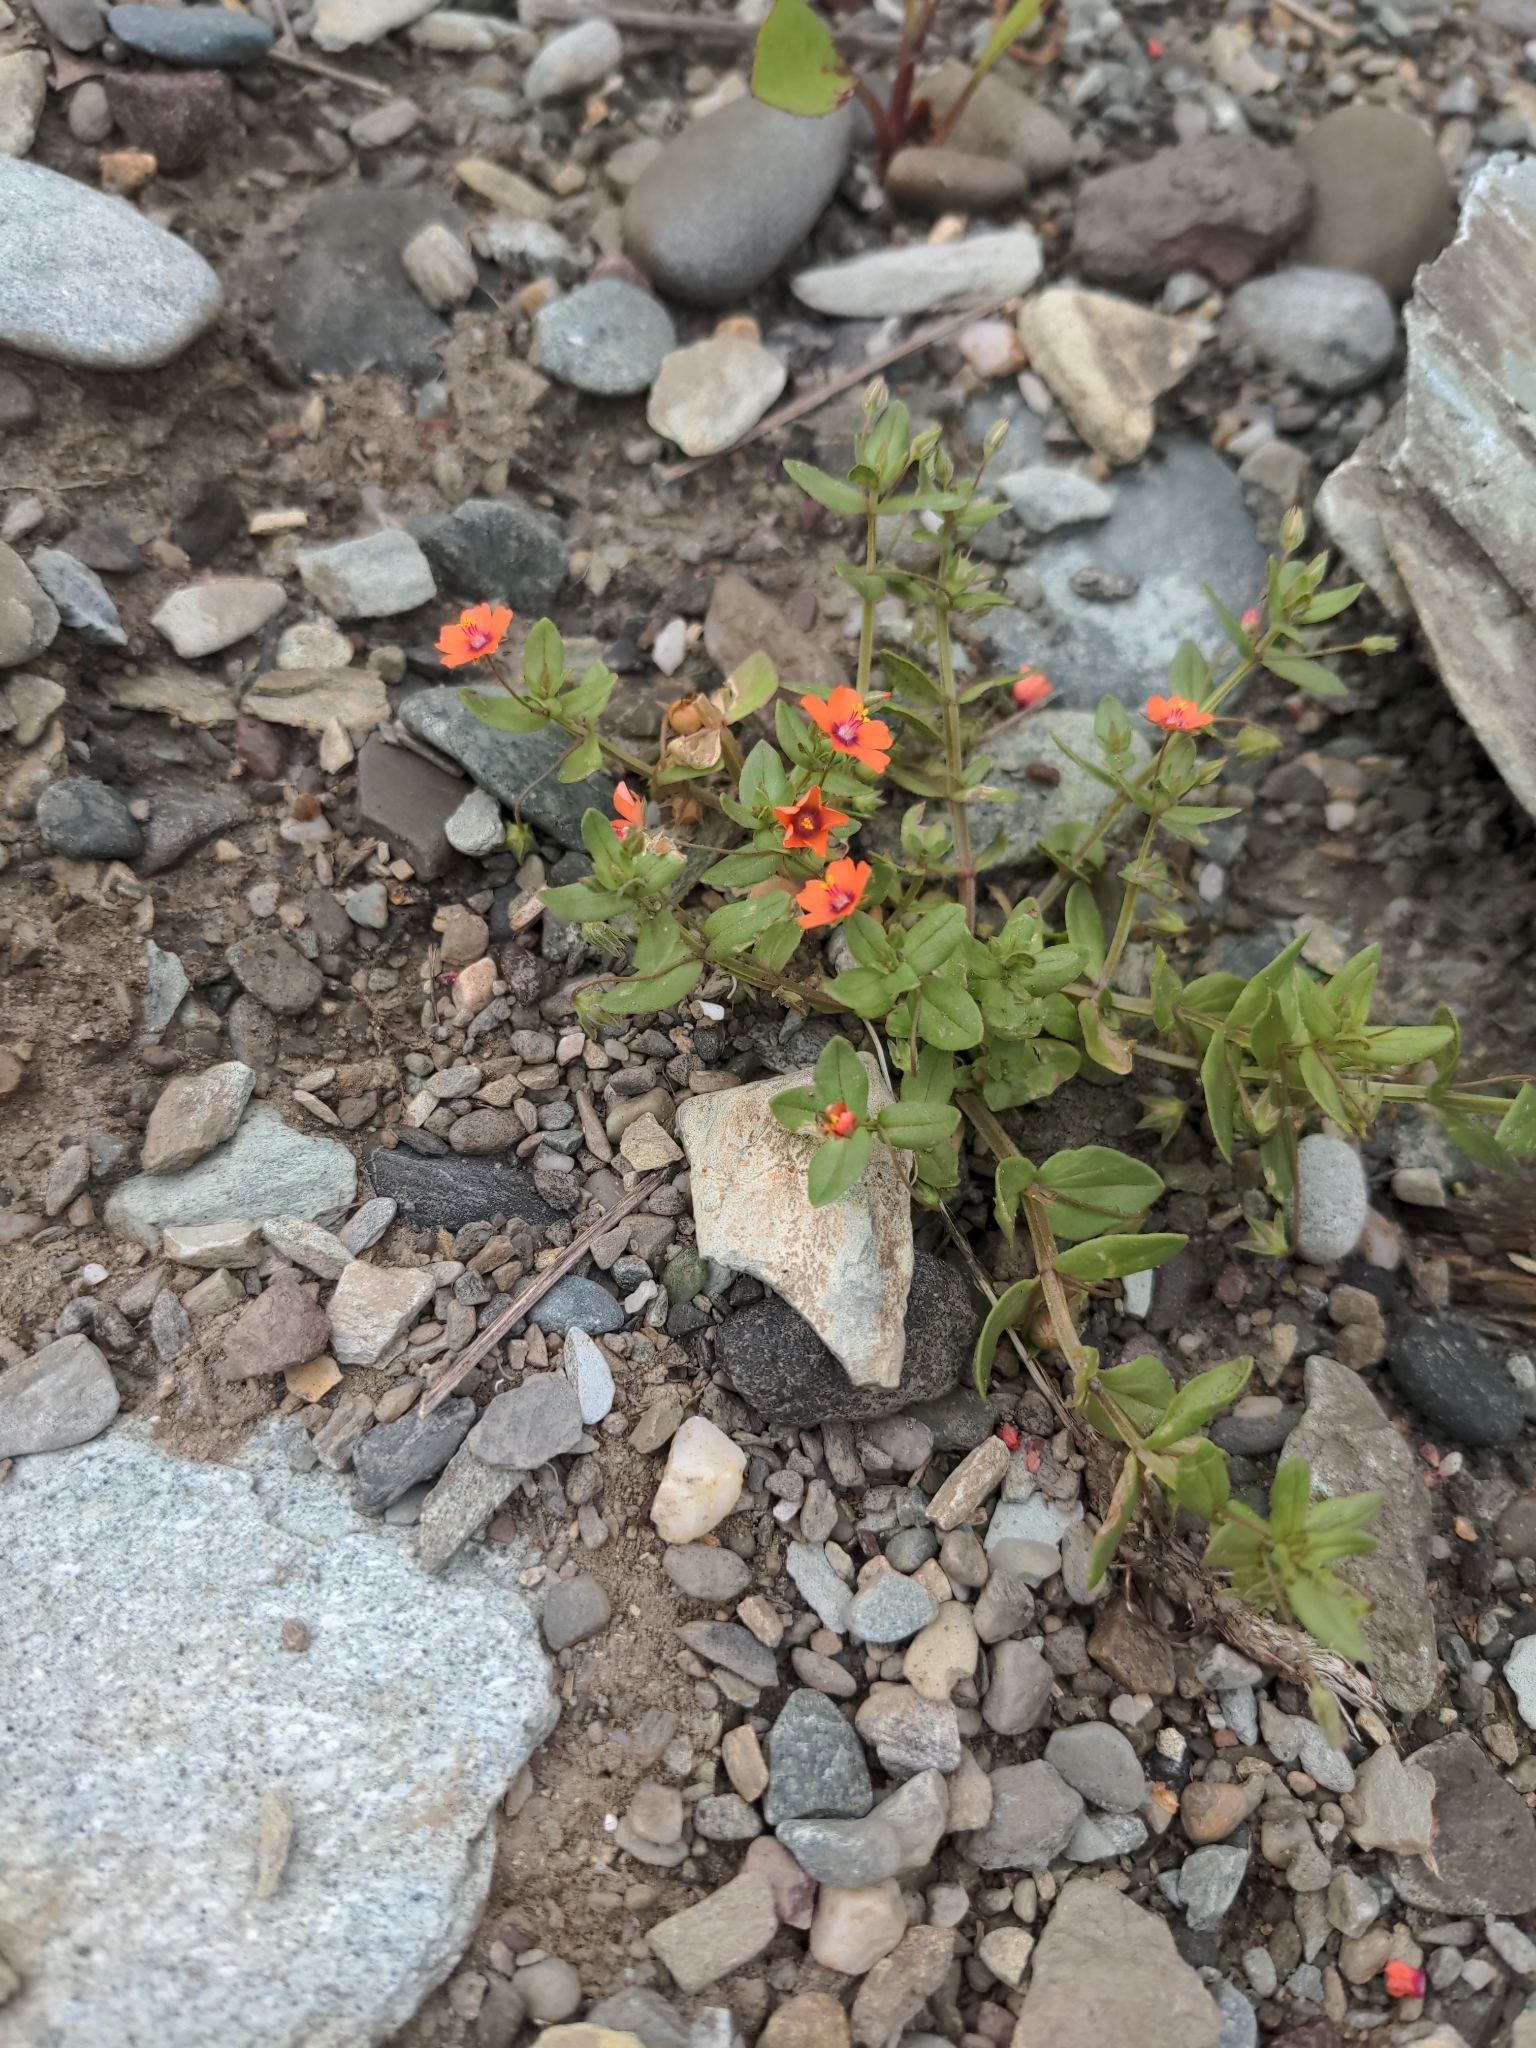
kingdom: Plantae
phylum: Tracheophyta
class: Magnoliopsida
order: Ericales
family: Primulaceae
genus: Lysimachia
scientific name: Lysimachia arvensis
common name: Scarlet pimpernel
